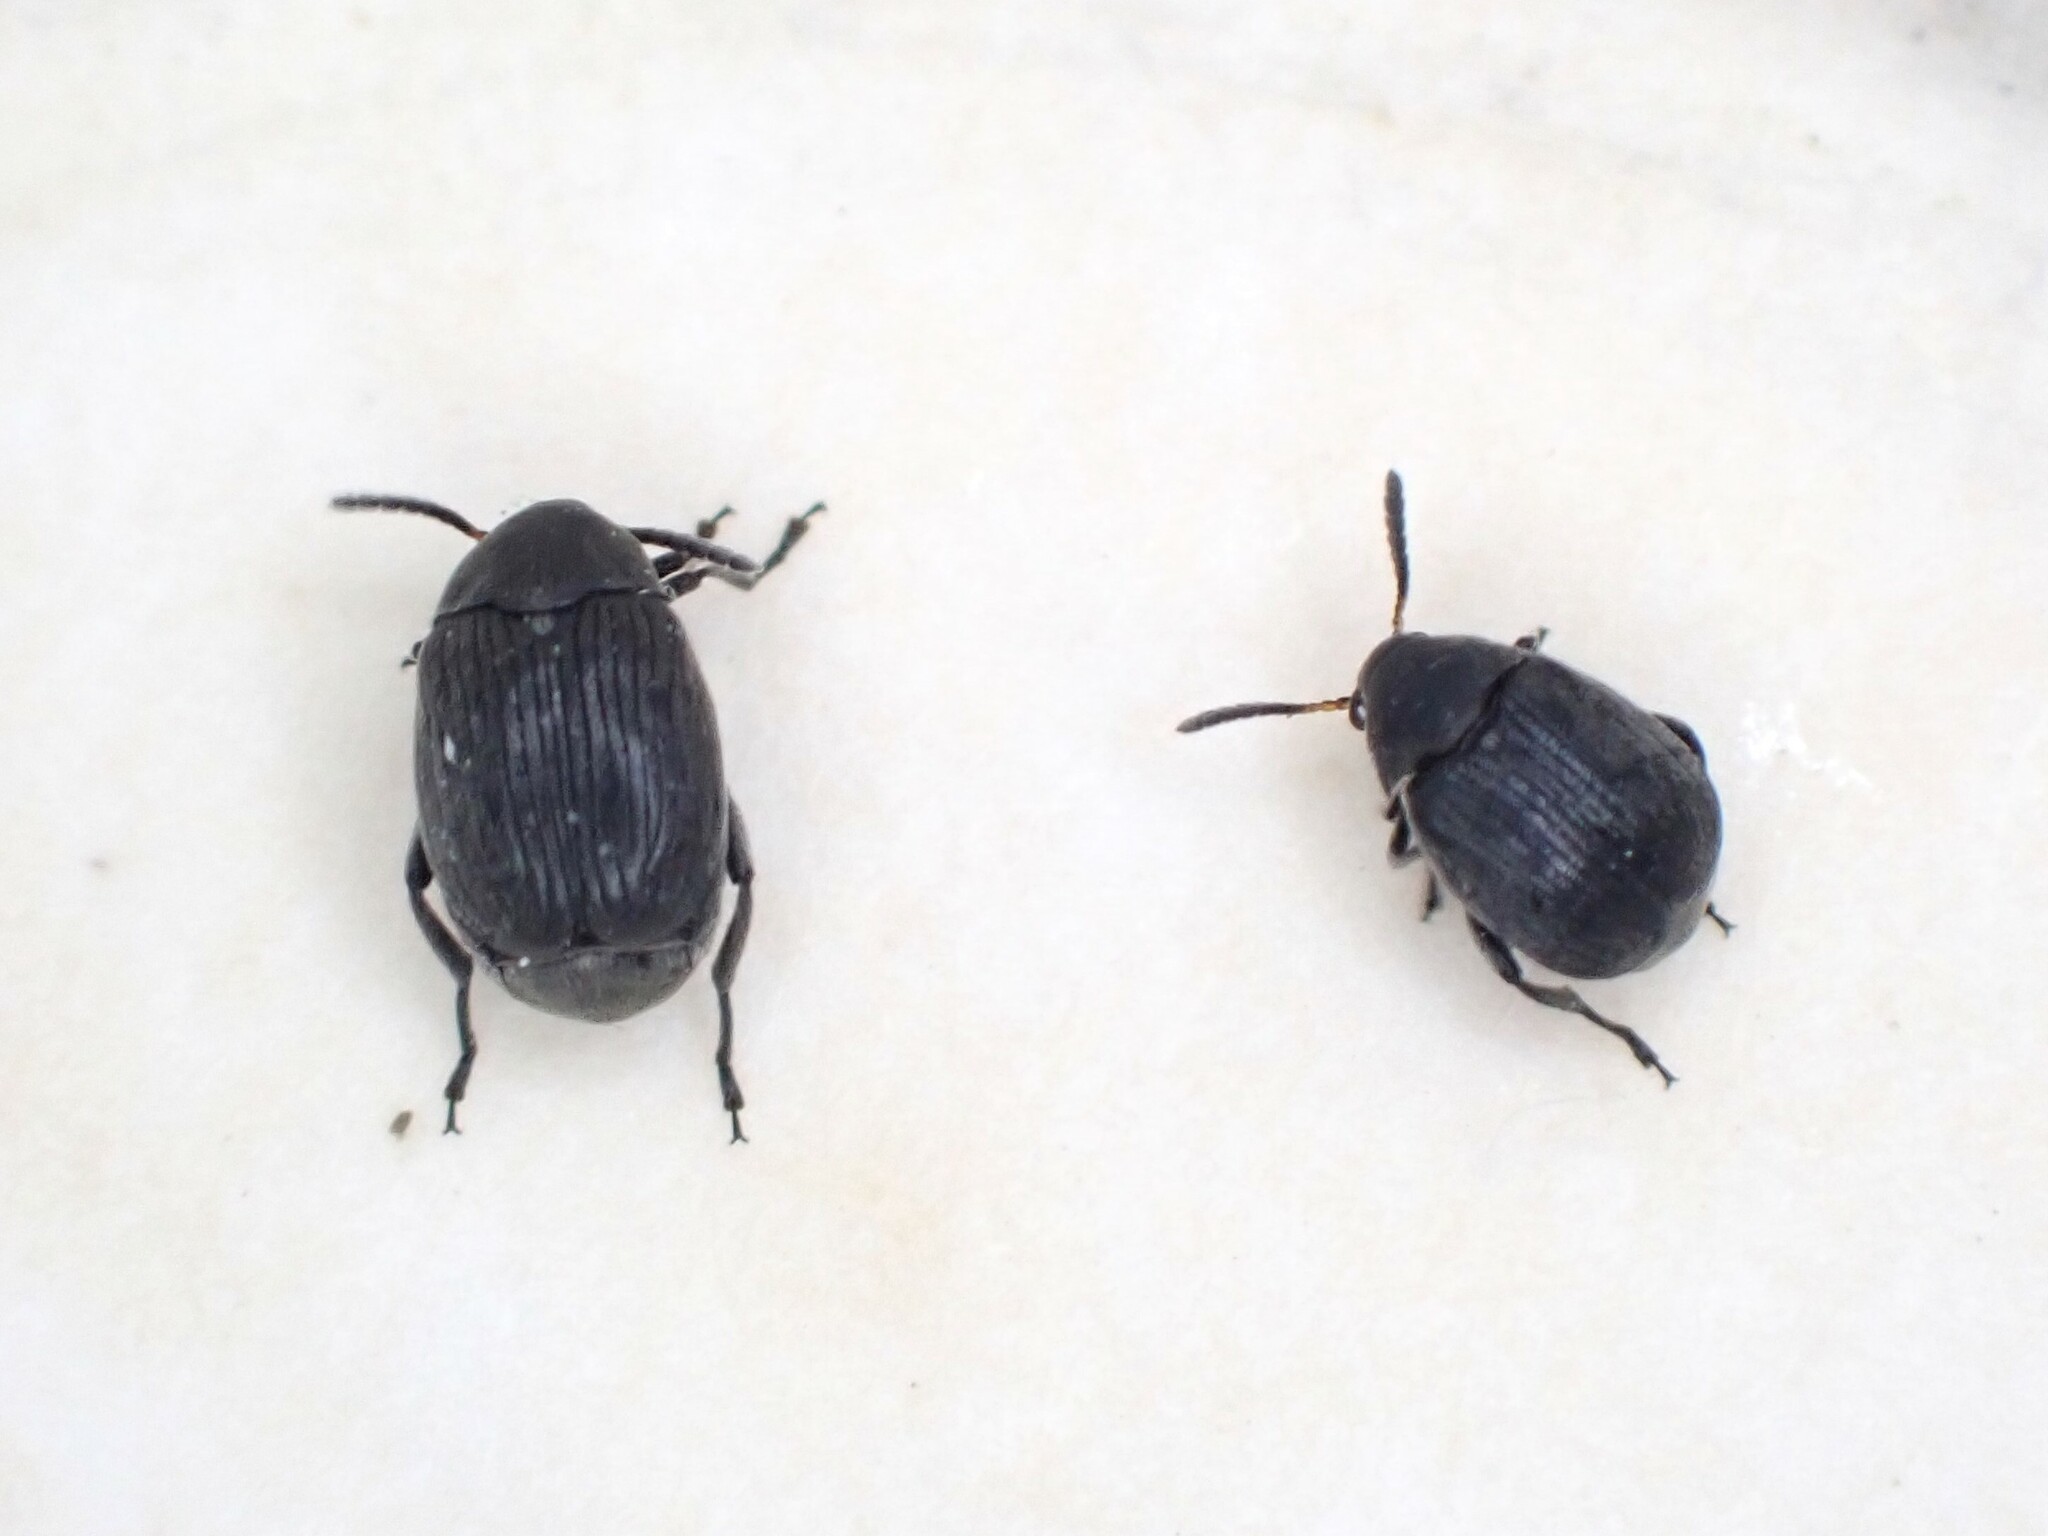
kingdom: Animalia
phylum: Arthropoda
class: Insecta
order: Coleoptera
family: Chrysomelidae
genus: Bruchidius
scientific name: Bruchidius villosus
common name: Scotch broom bruchid
